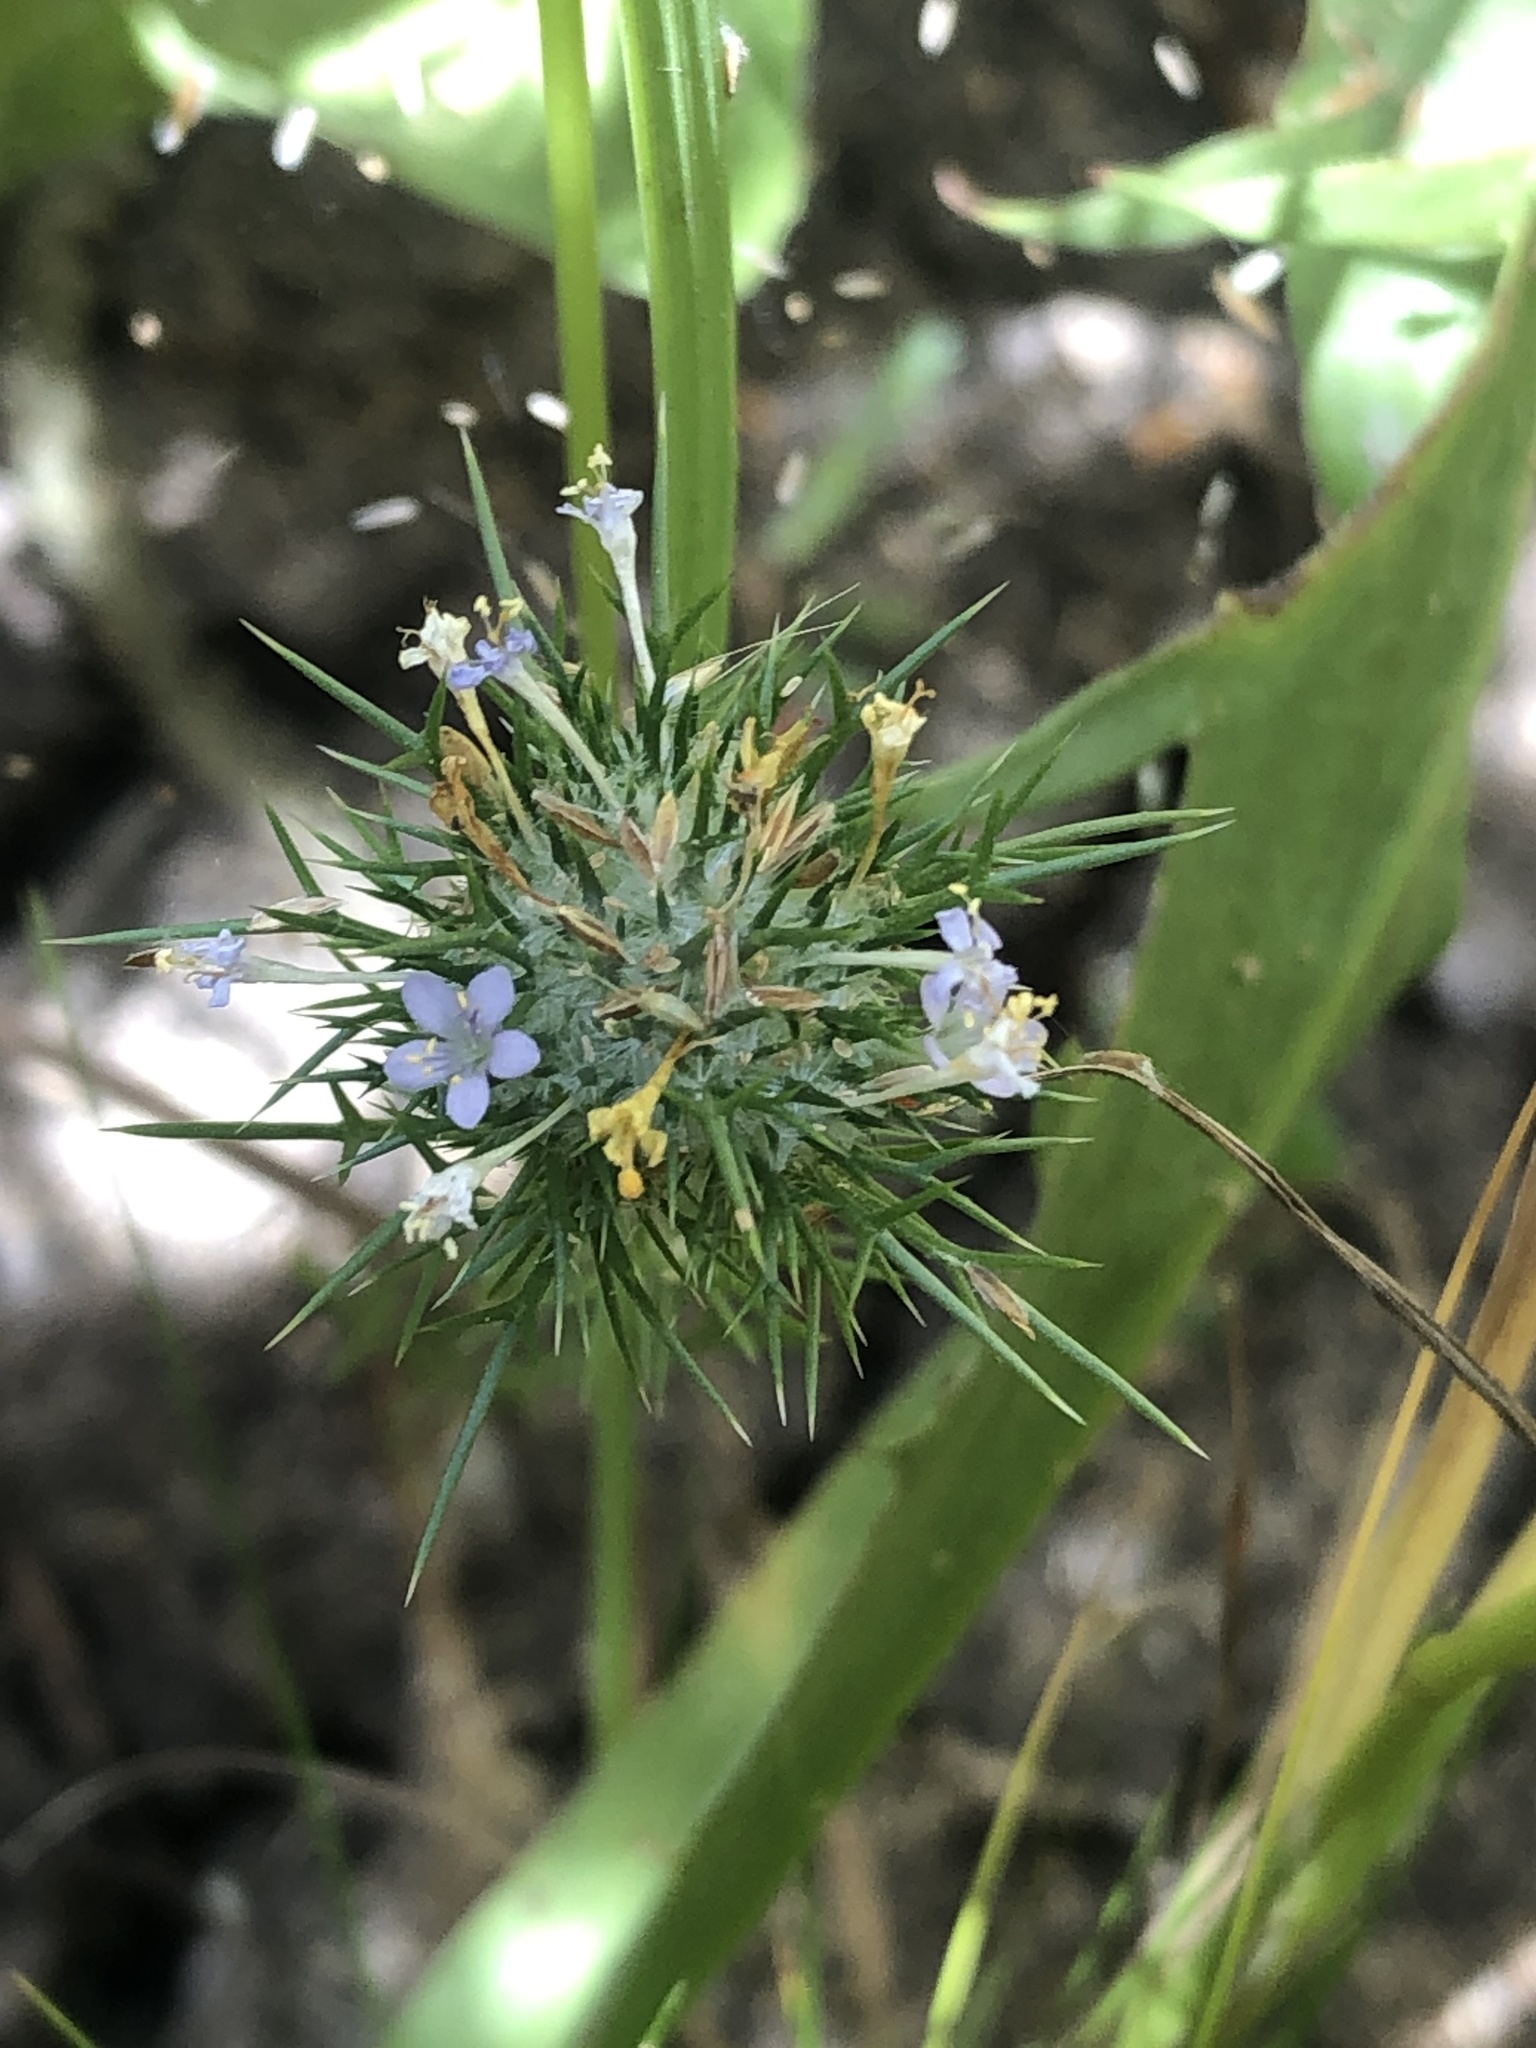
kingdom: Plantae
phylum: Tracheophyta
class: Magnoliopsida
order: Ericales
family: Polemoniaceae
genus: Navarretia
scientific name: Navarretia intertexta
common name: Needle-leaved navarretia
